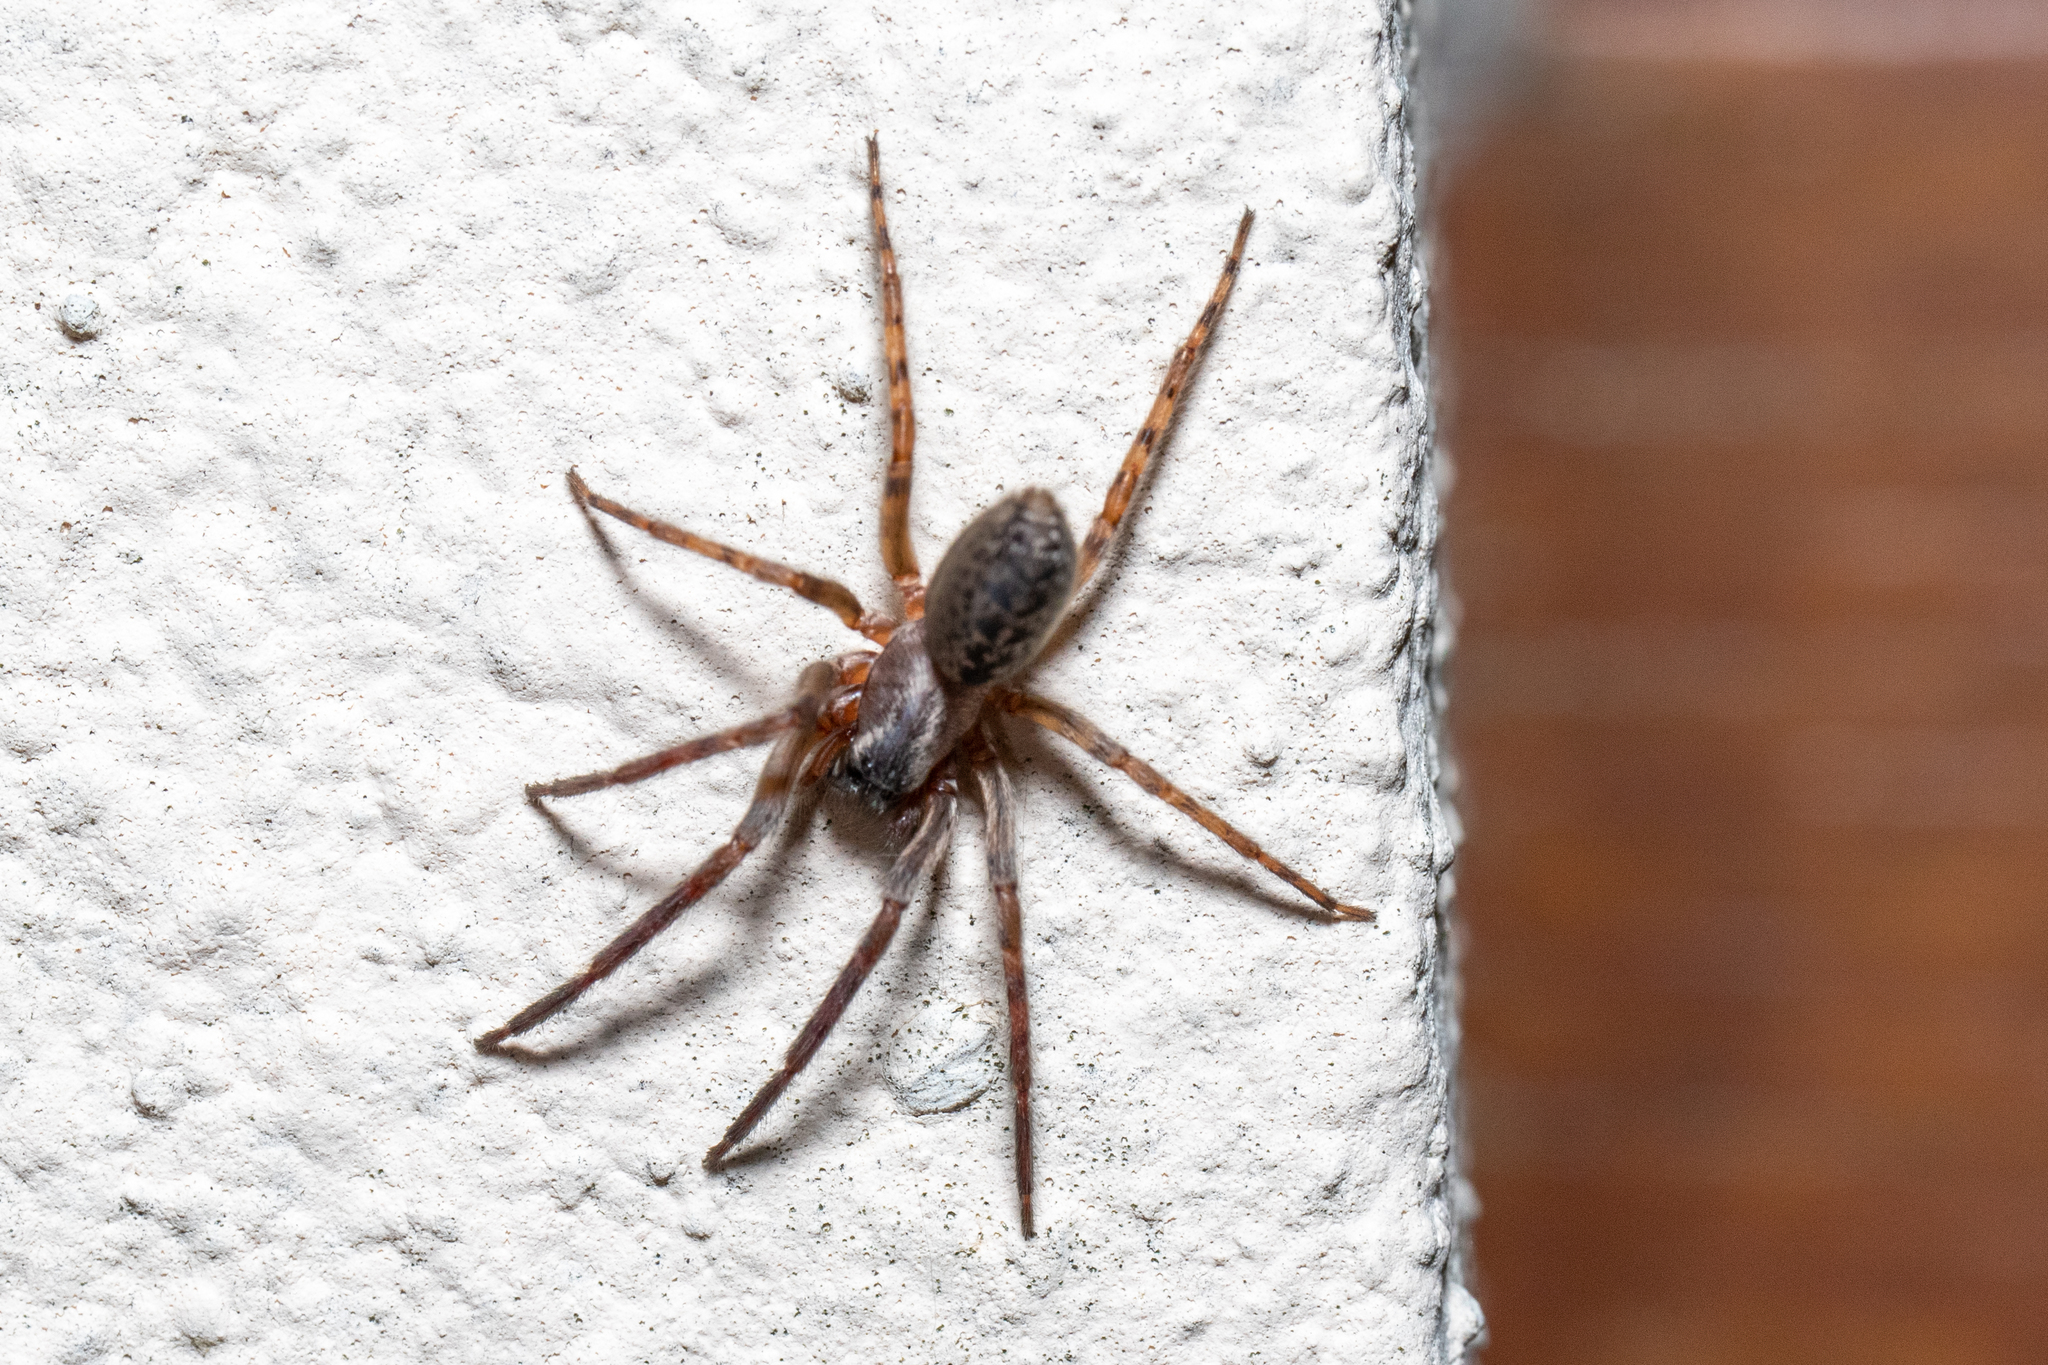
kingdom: Animalia
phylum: Arthropoda
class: Arachnida
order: Araneae
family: Segestriidae
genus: Segestria
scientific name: Segestria bavarica
